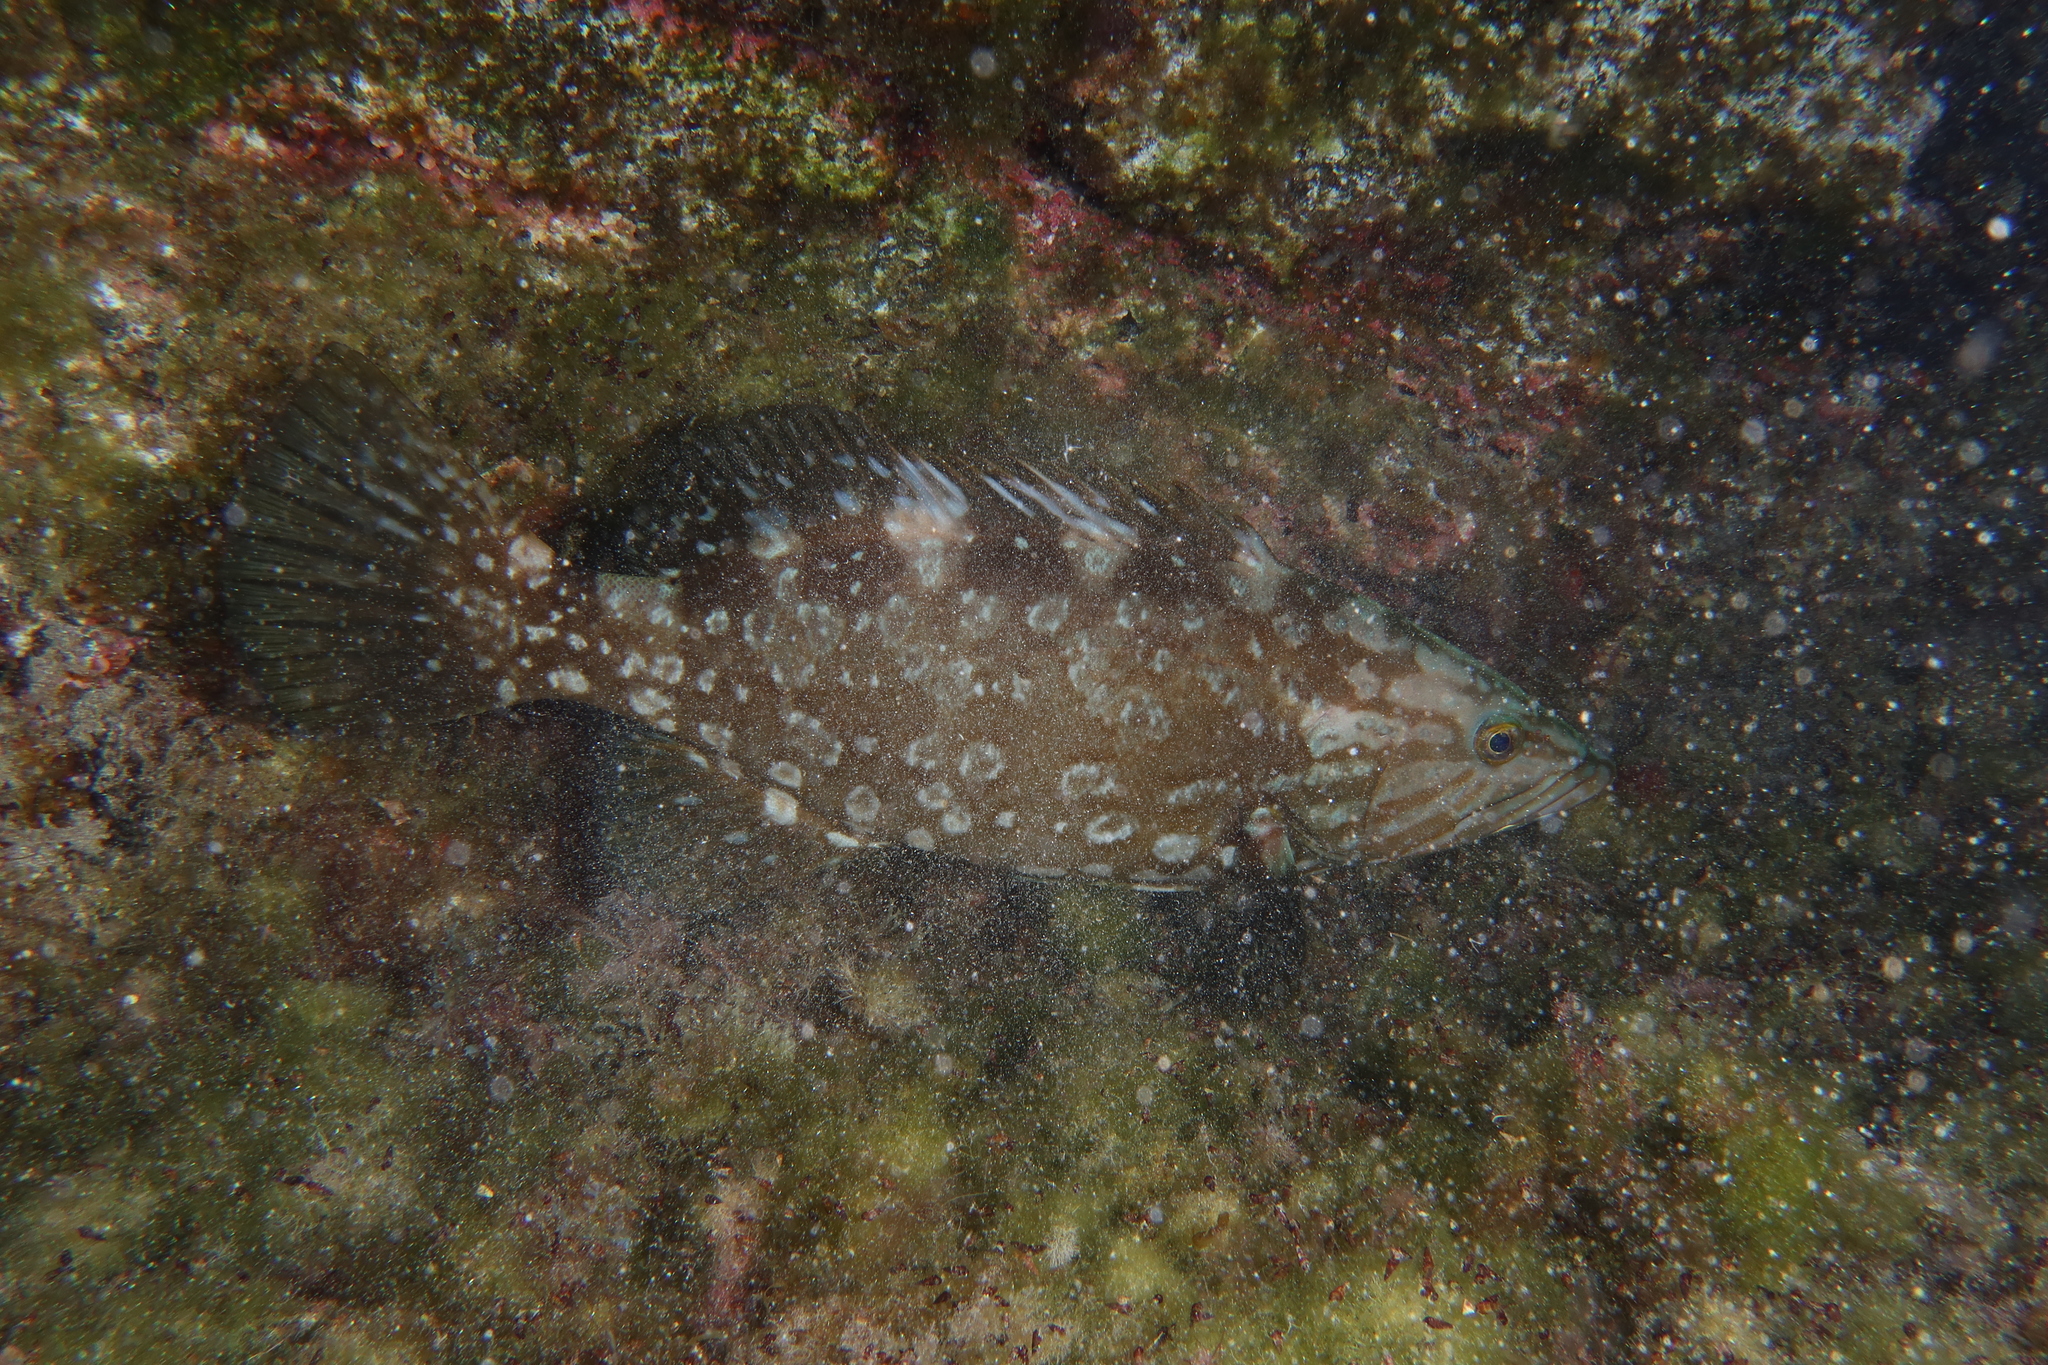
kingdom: Animalia
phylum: Chordata
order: Perciformes
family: Serranidae
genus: Mycteroperca
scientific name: Mycteroperca fusca
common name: Island grouper
